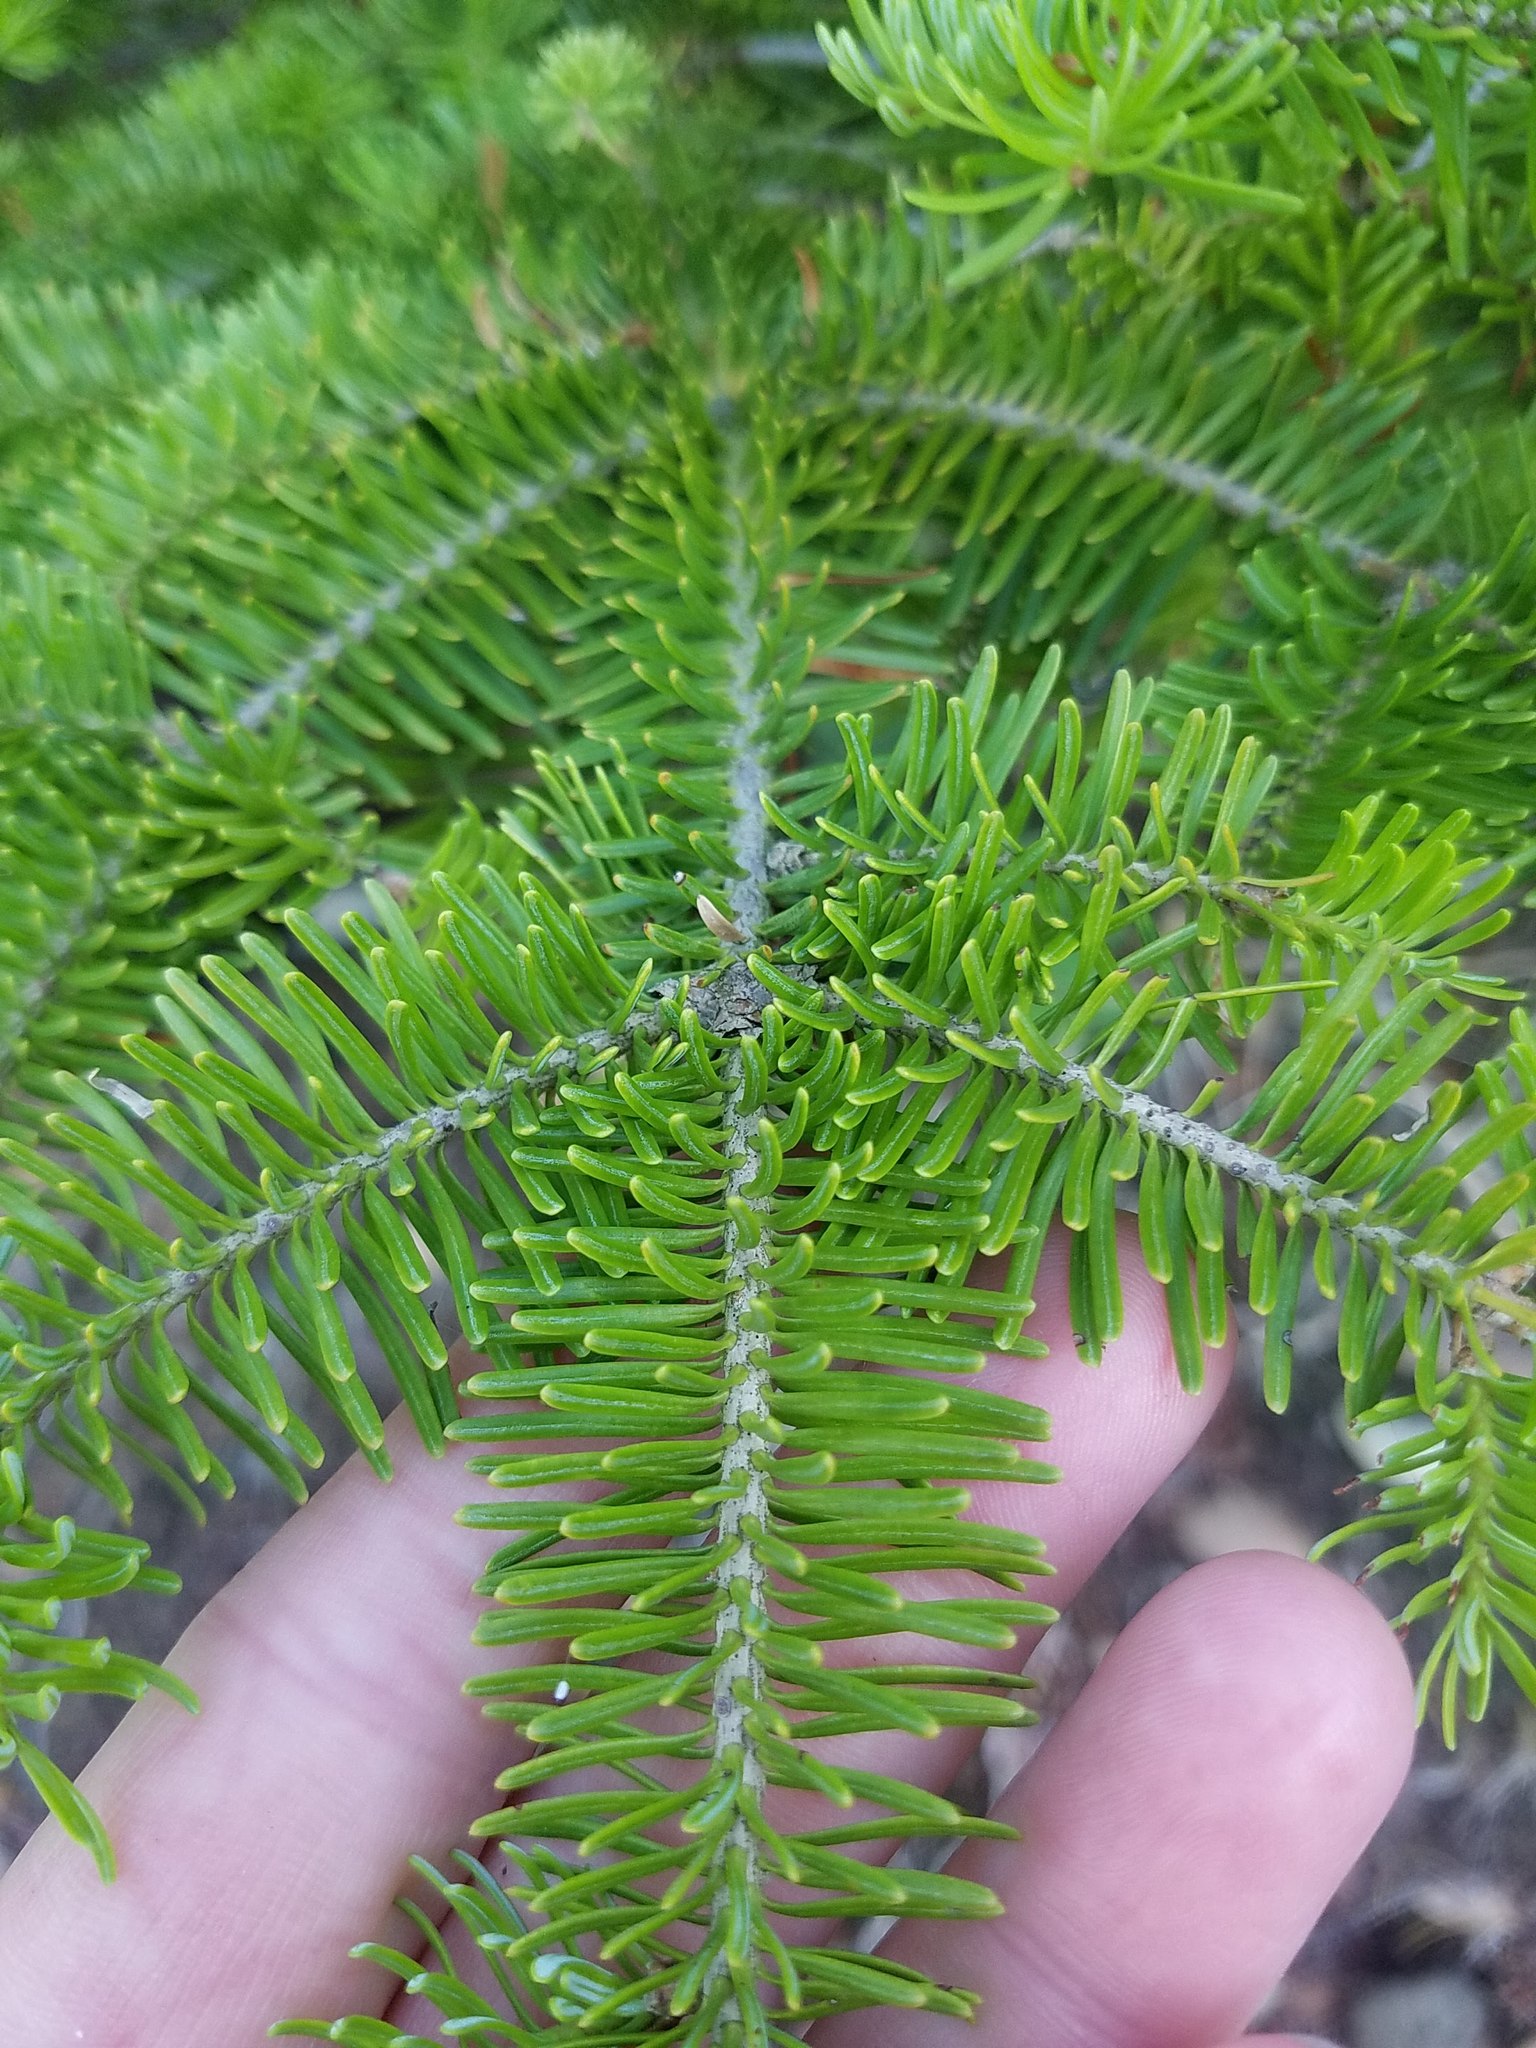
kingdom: Plantae
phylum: Tracheophyta
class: Pinopsida
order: Pinales
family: Pinaceae
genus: Abies
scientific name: Abies balsamea
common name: Balsam fir
